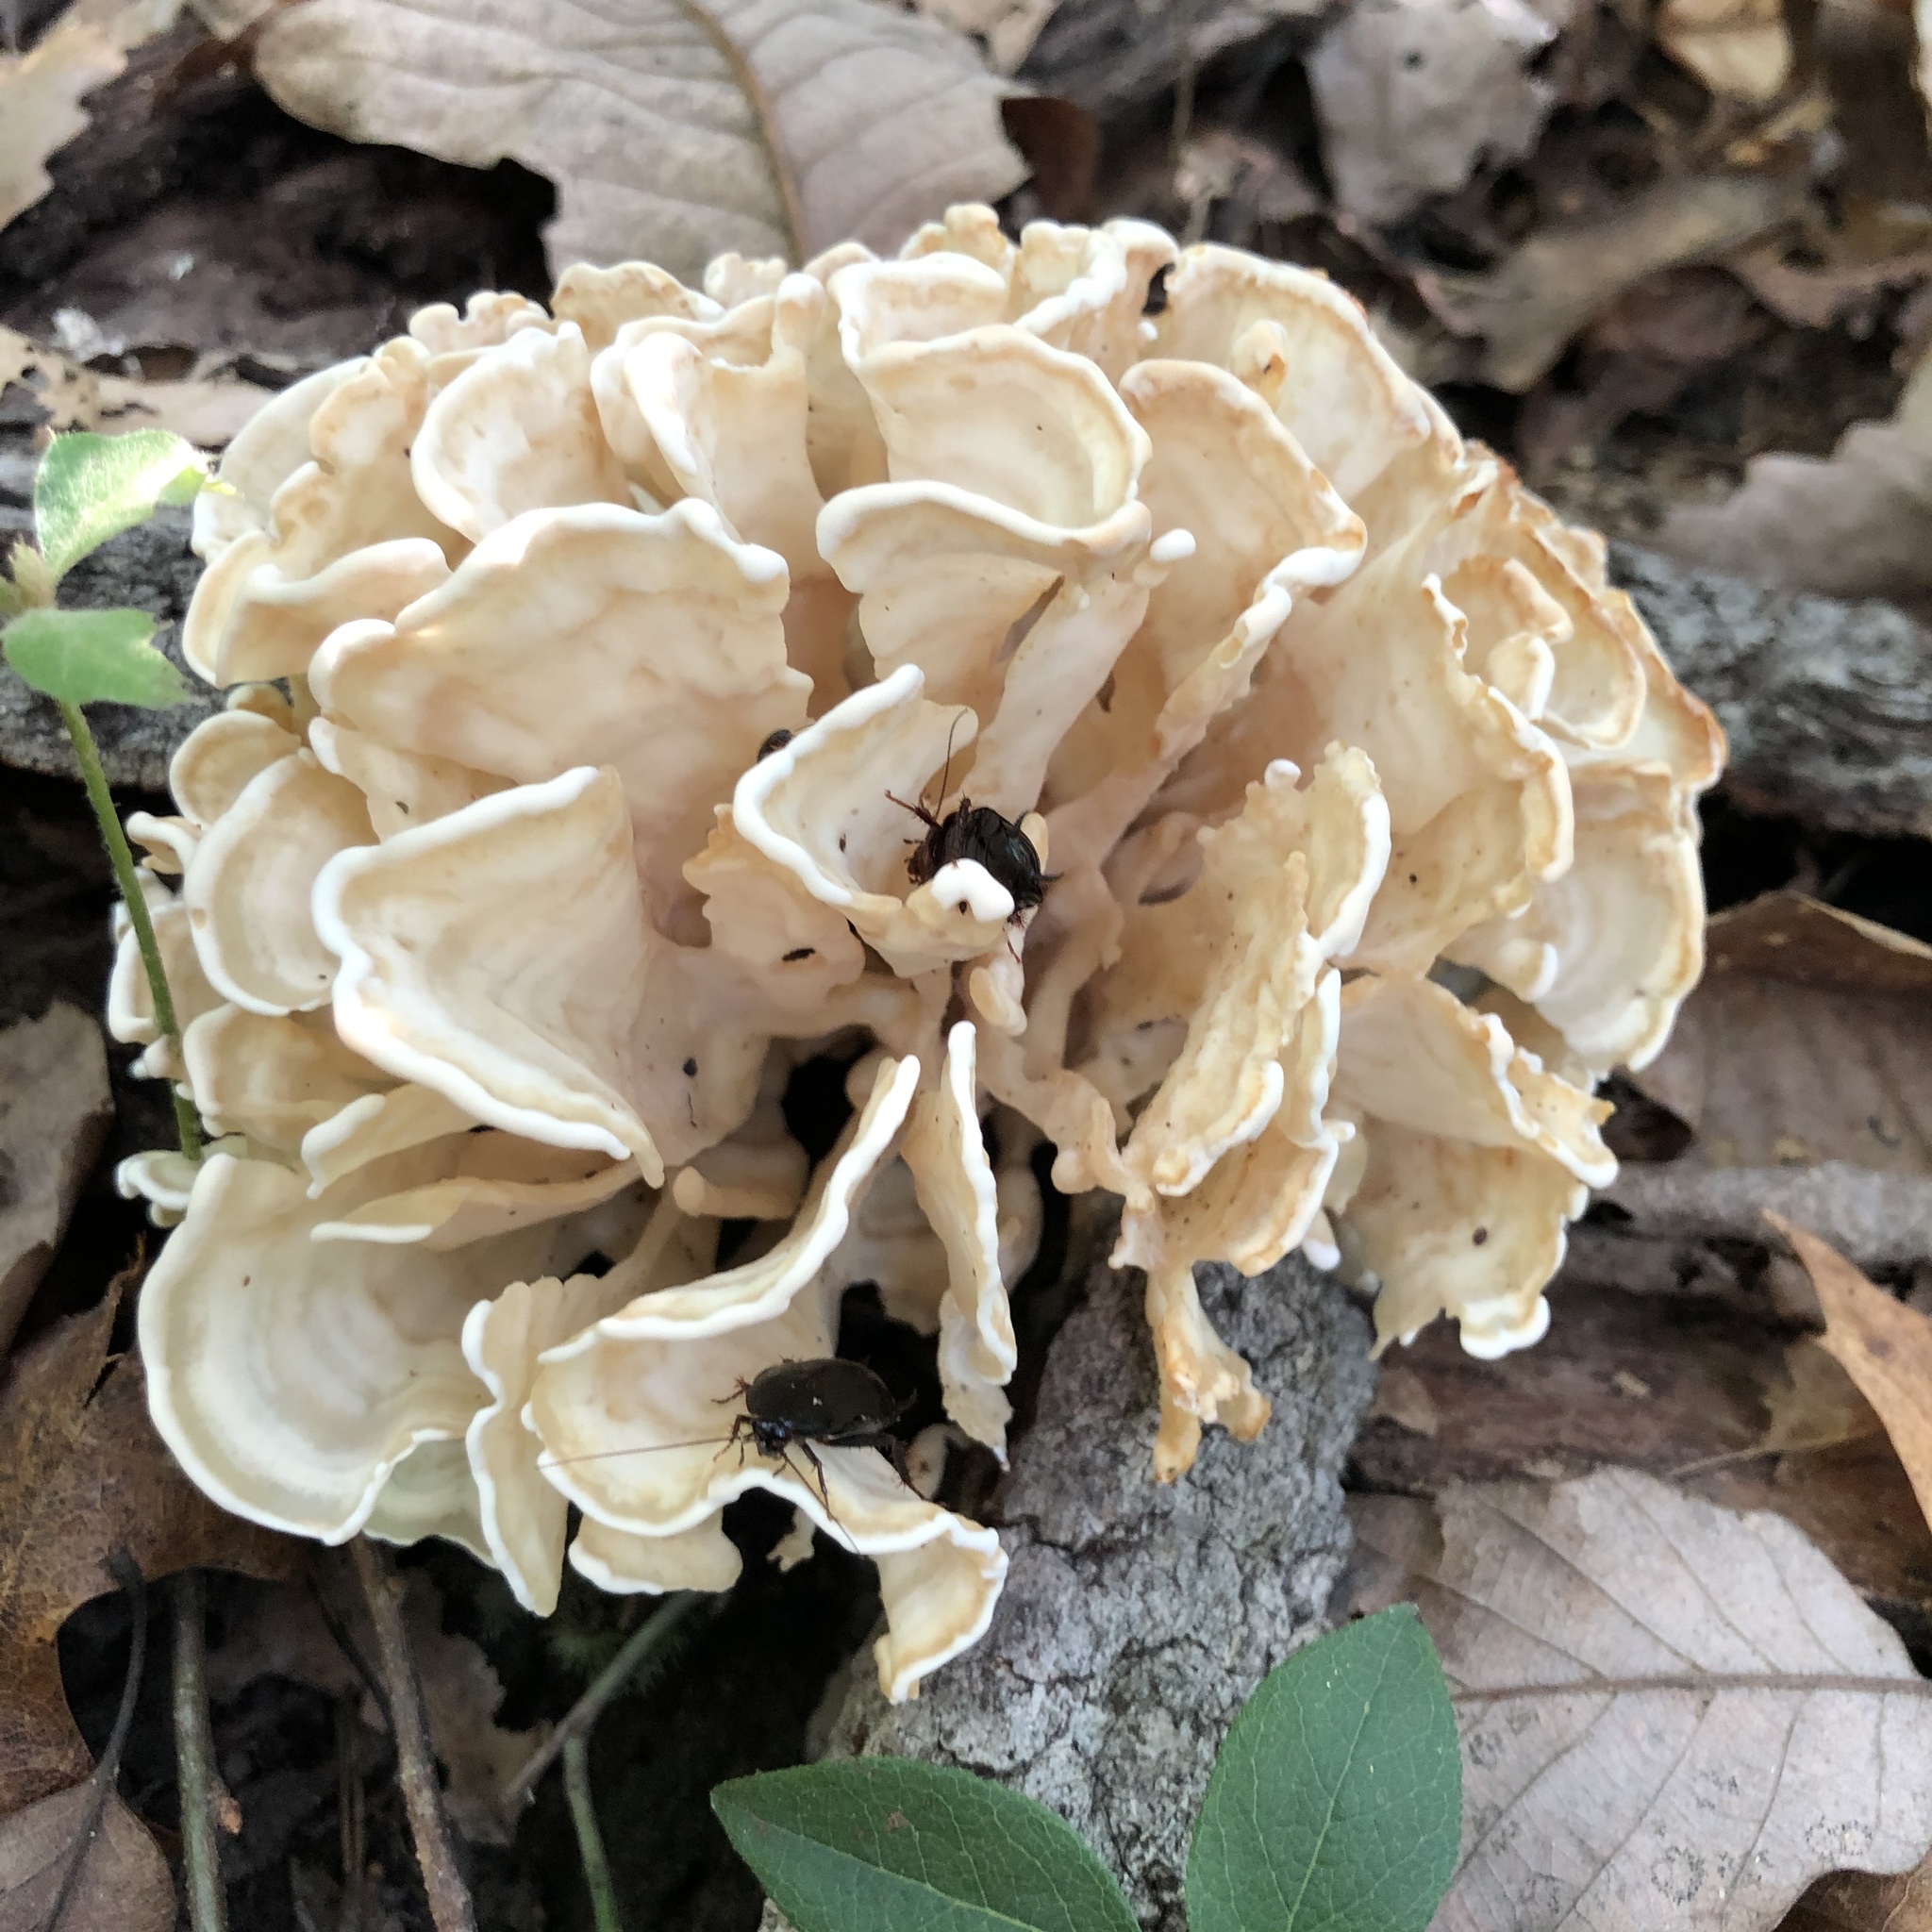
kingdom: Fungi
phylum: Basidiomycota
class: Agaricomycetes
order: Polyporales
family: Sparassidaceae
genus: Sparassis
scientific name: Sparassis spathulata
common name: Eastern cauliflower mushroom
